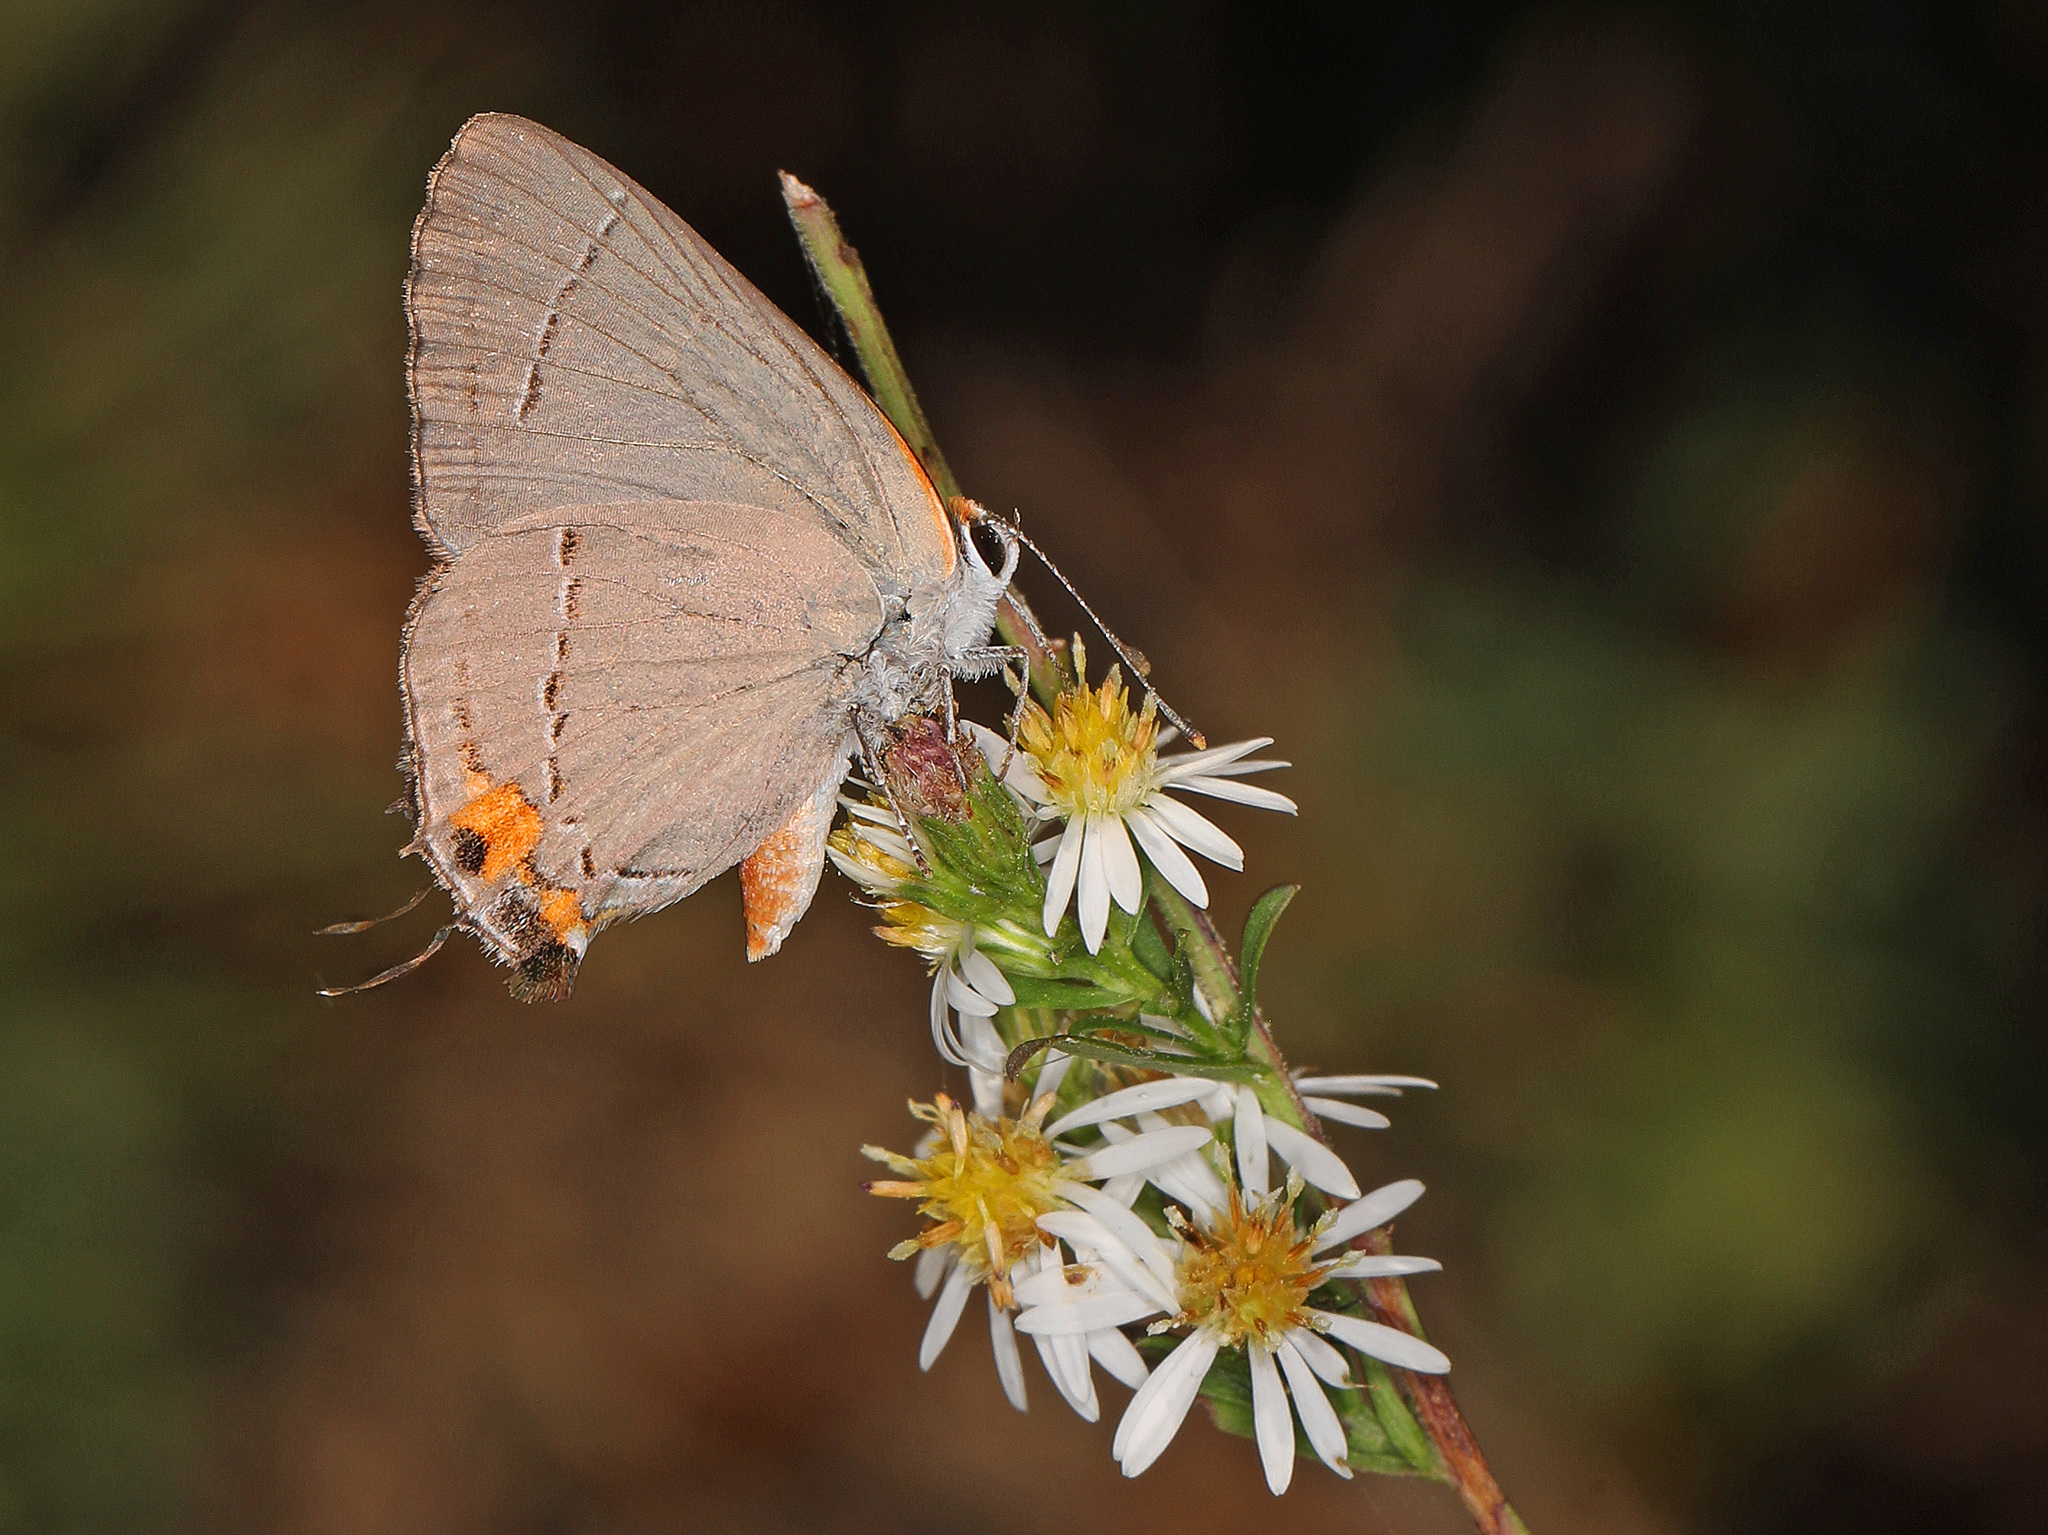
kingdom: Animalia
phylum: Arthropoda
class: Insecta
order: Lepidoptera
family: Lycaenidae
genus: Strymon
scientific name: Strymon melinus
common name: Gray hairstreak
